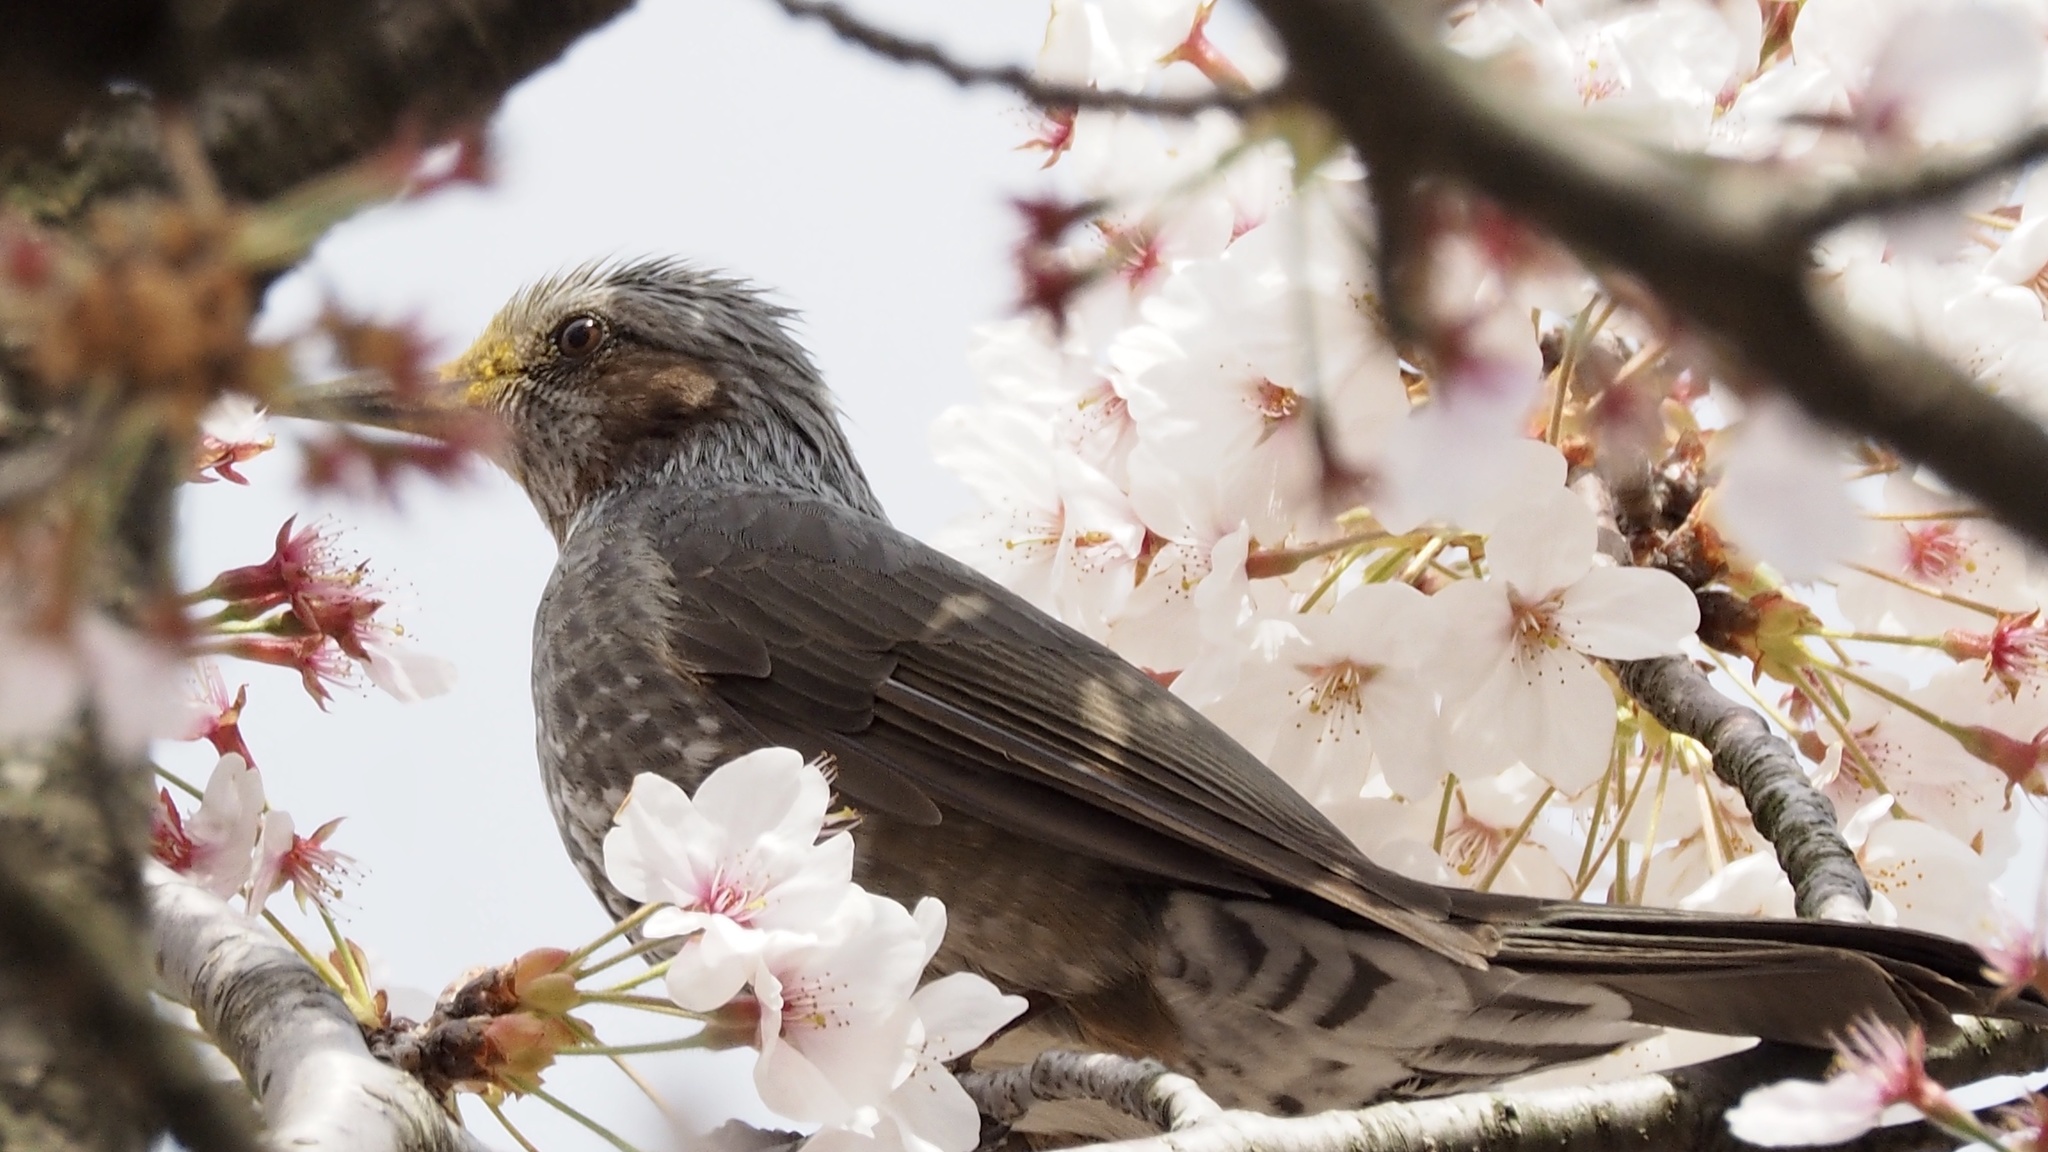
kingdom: Animalia
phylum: Chordata
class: Aves
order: Passeriformes
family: Pycnonotidae
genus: Hypsipetes
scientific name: Hypsipetes amaurotis
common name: Brown-eared bulbul
